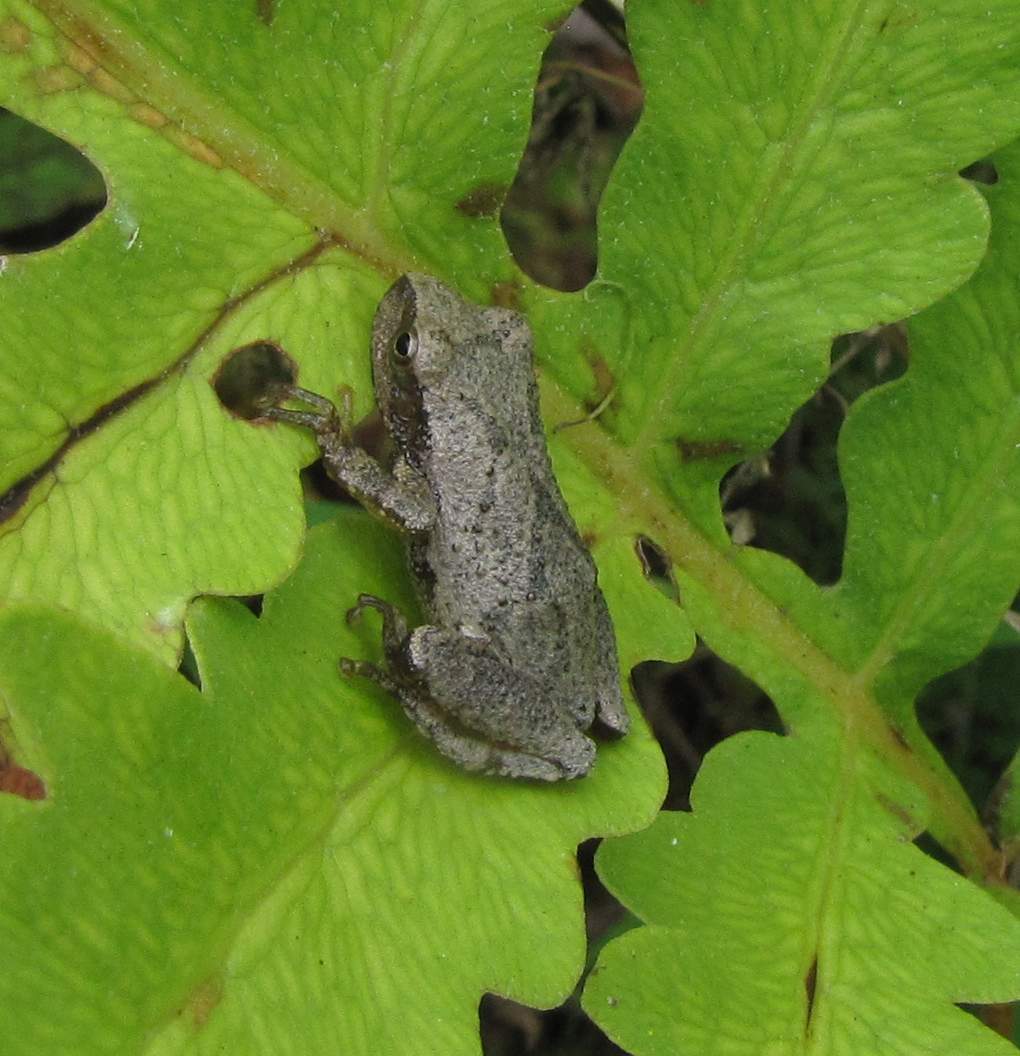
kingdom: Animalia
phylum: Chordata
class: Amphibia
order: Anura
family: Hylidae
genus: Pseudacris
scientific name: Pseudacris crucifer
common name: Spring peeper
